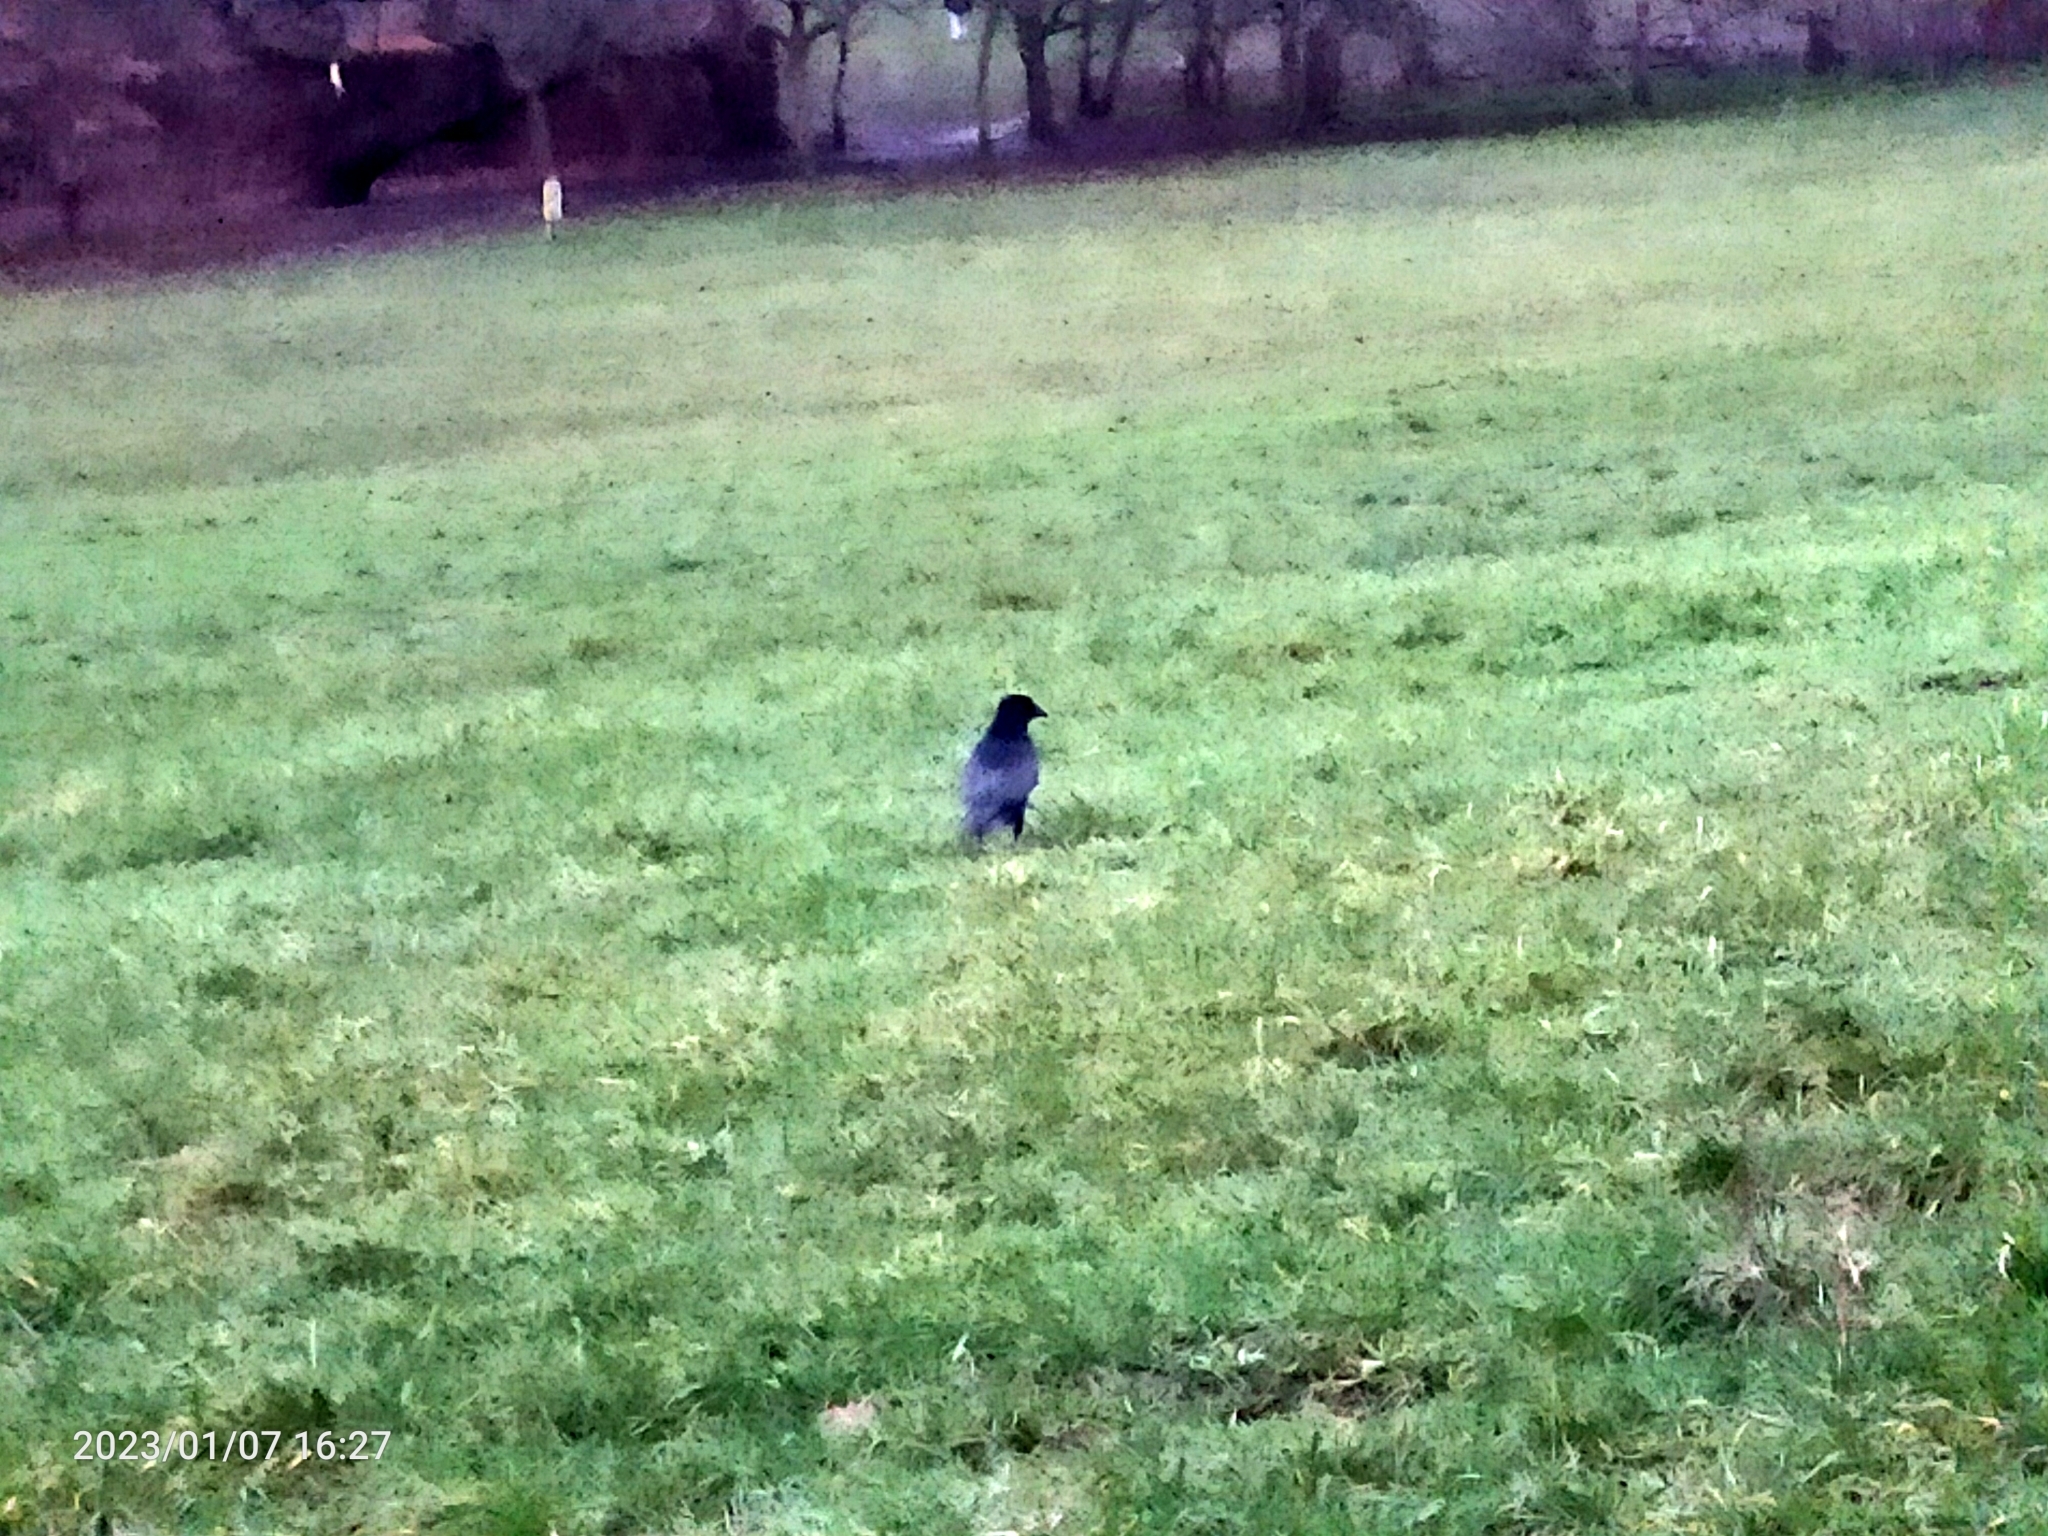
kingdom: Animalia
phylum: Chordata
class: Aves
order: Passeriformes
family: Corvidae
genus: Corvus
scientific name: Corvus corone
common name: Carrion crow
